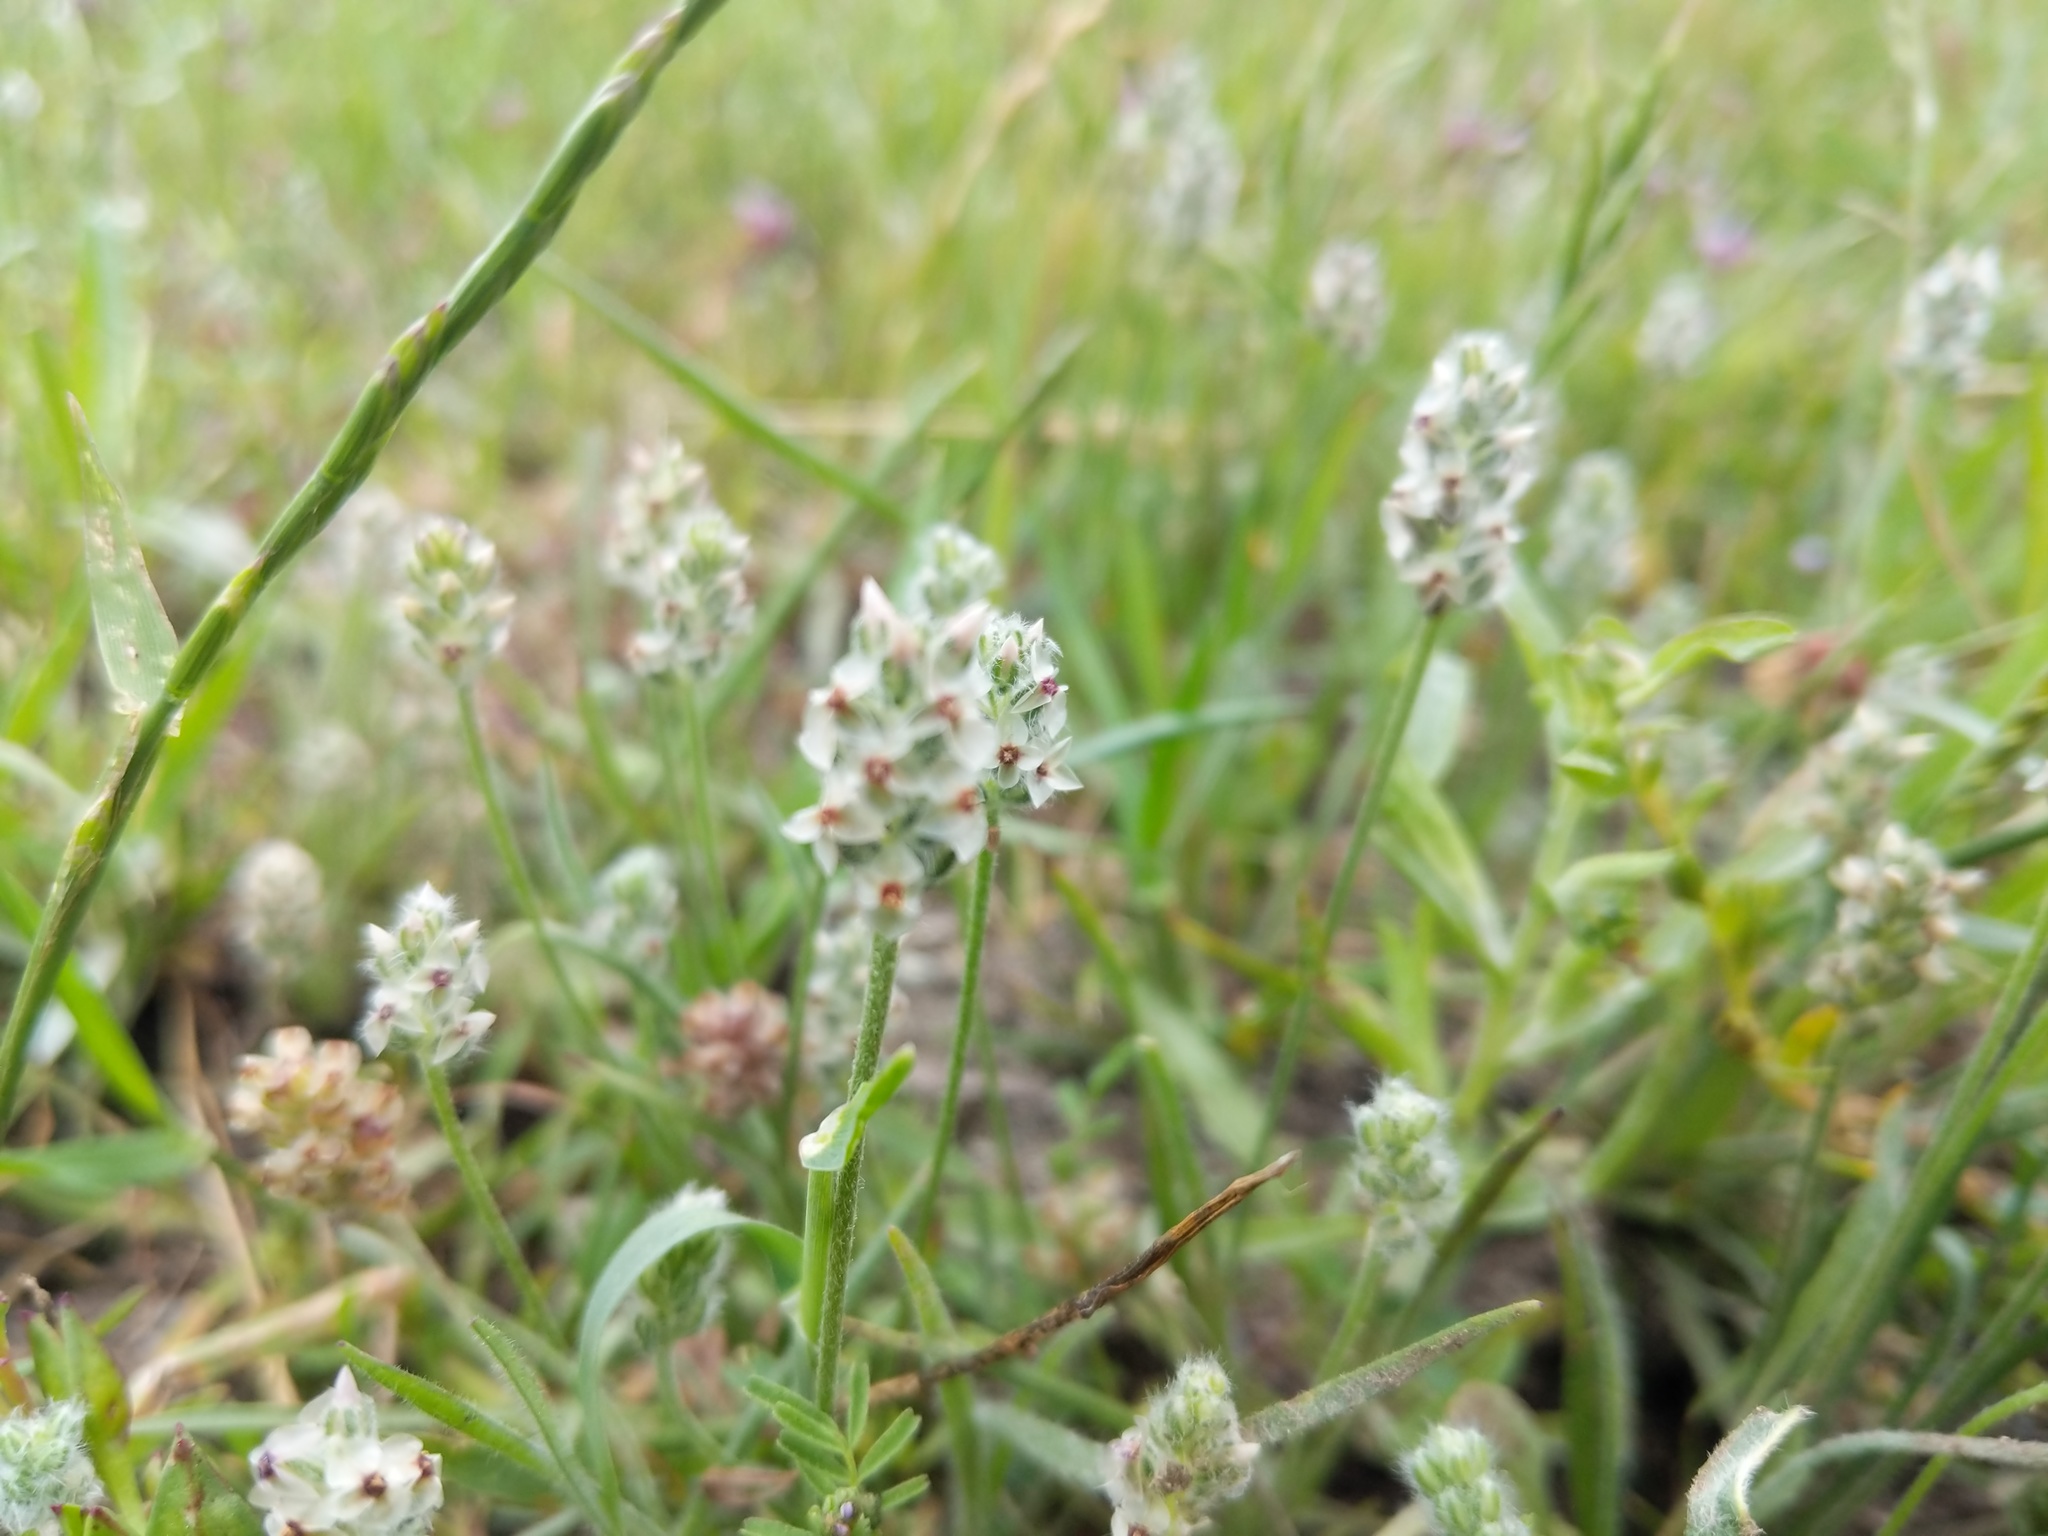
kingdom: Plantae
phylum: Tracheophyta
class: Magnoliopsida
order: Lamiales
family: Plantaginaceae
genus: Plantago
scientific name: Plantago erecta
